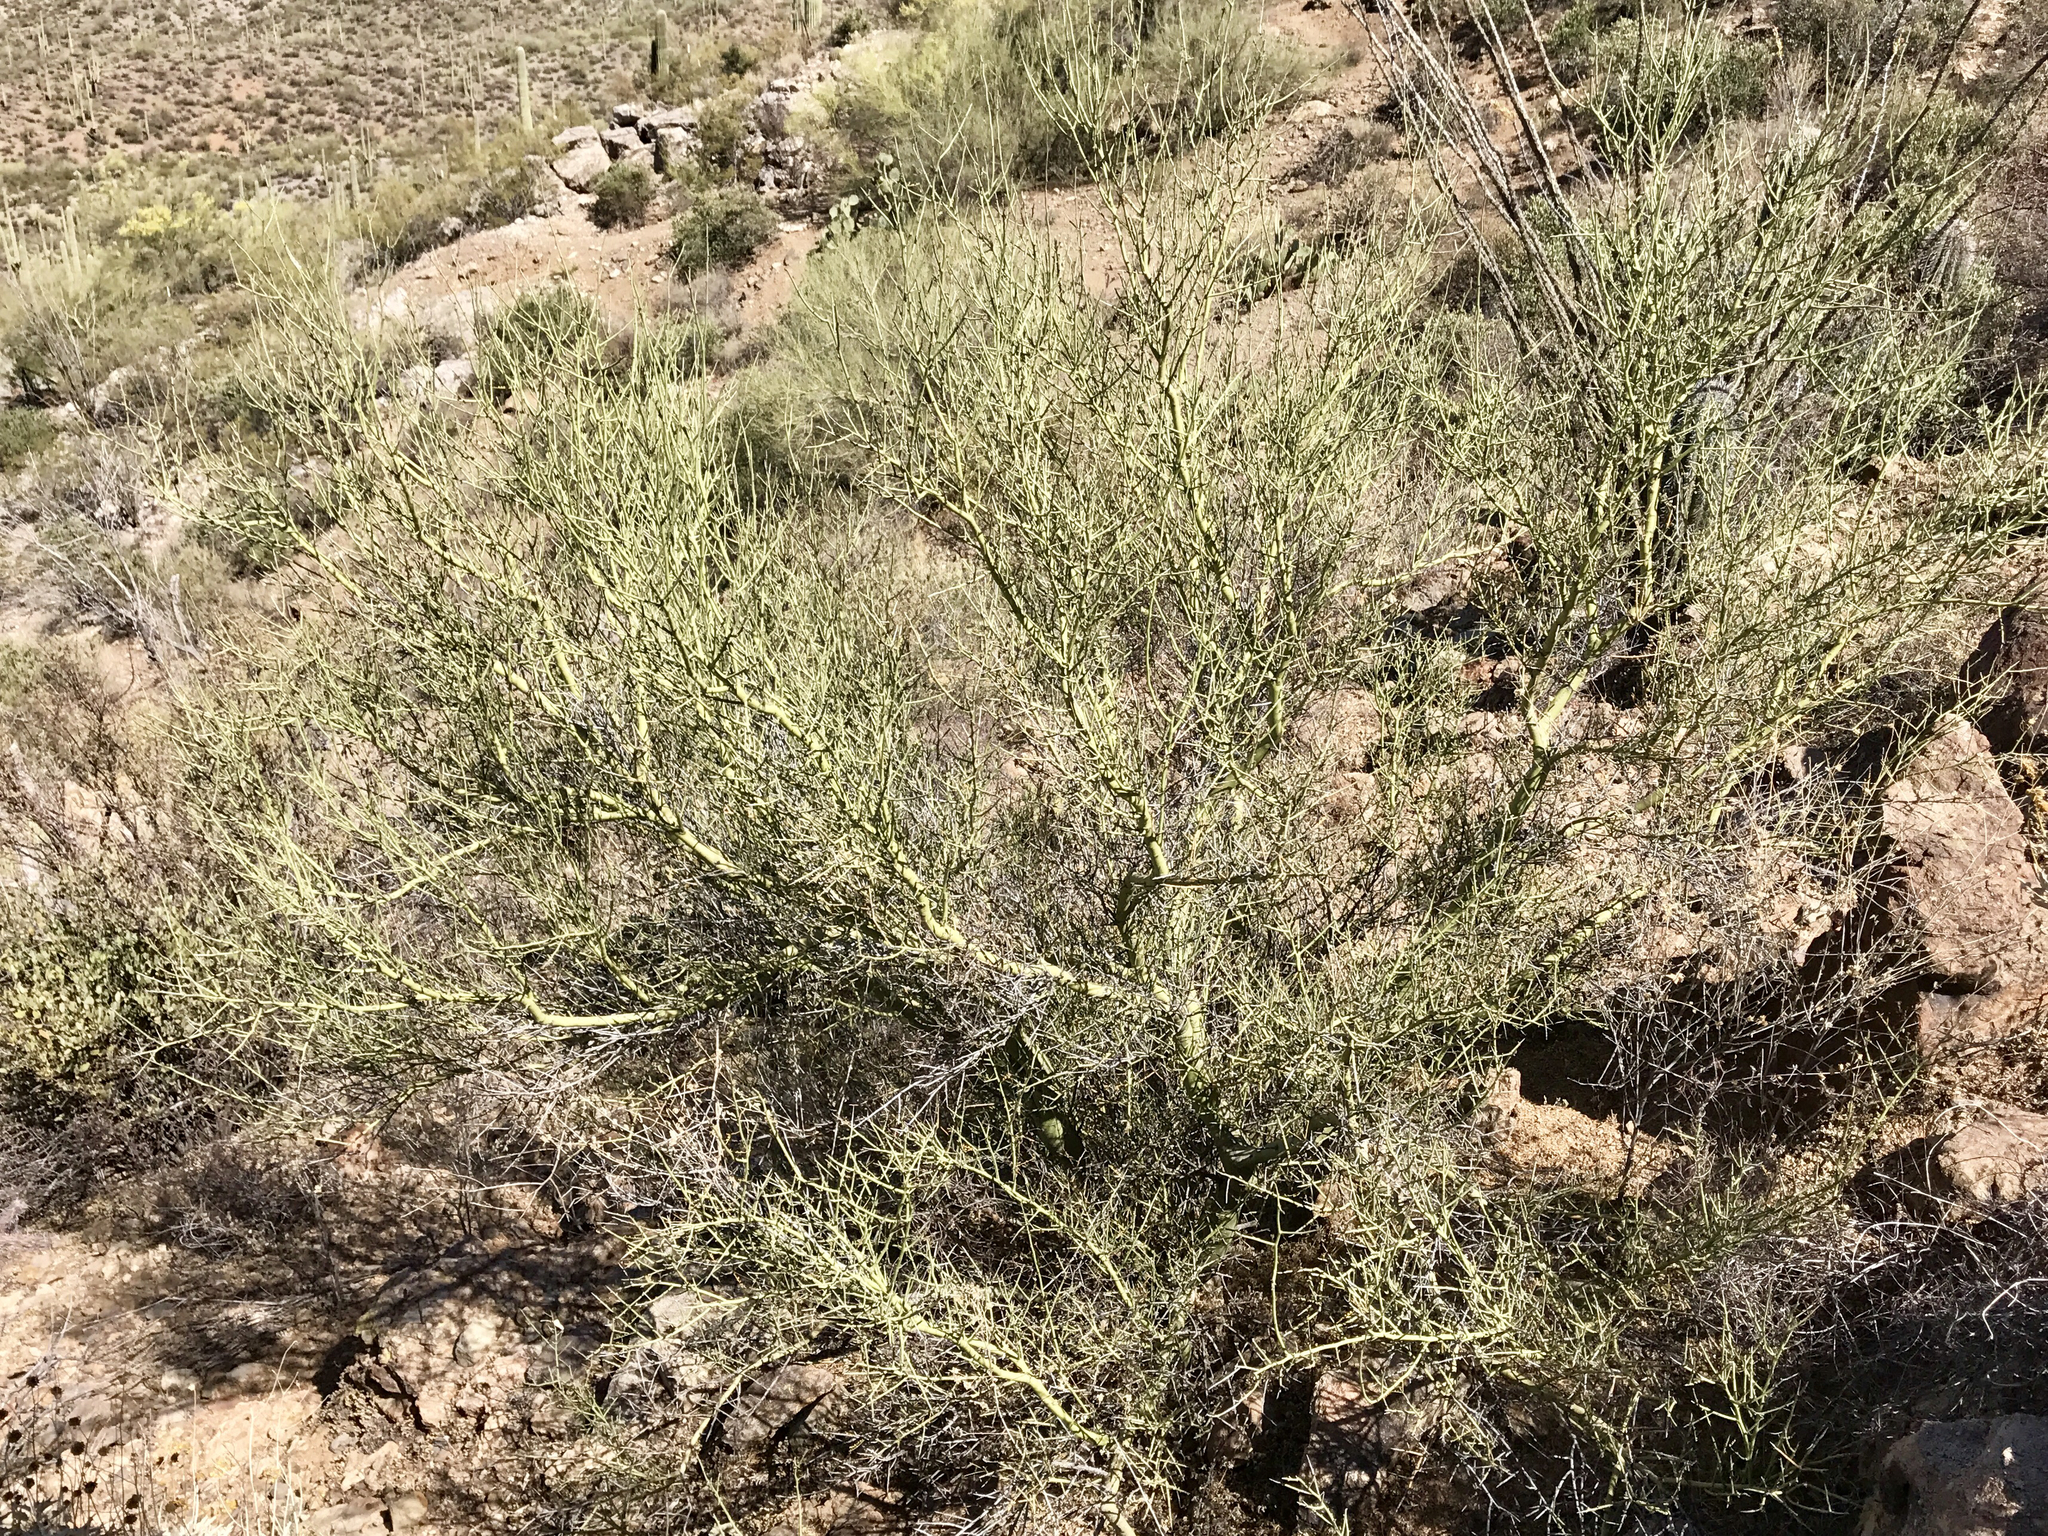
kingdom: Plantae
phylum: Tracheophyta
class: Magnoliopsida
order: Fabales
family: Fabaceae
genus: Parkinsonia
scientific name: Parkinsonia microphylla
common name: Yellow paloverde
